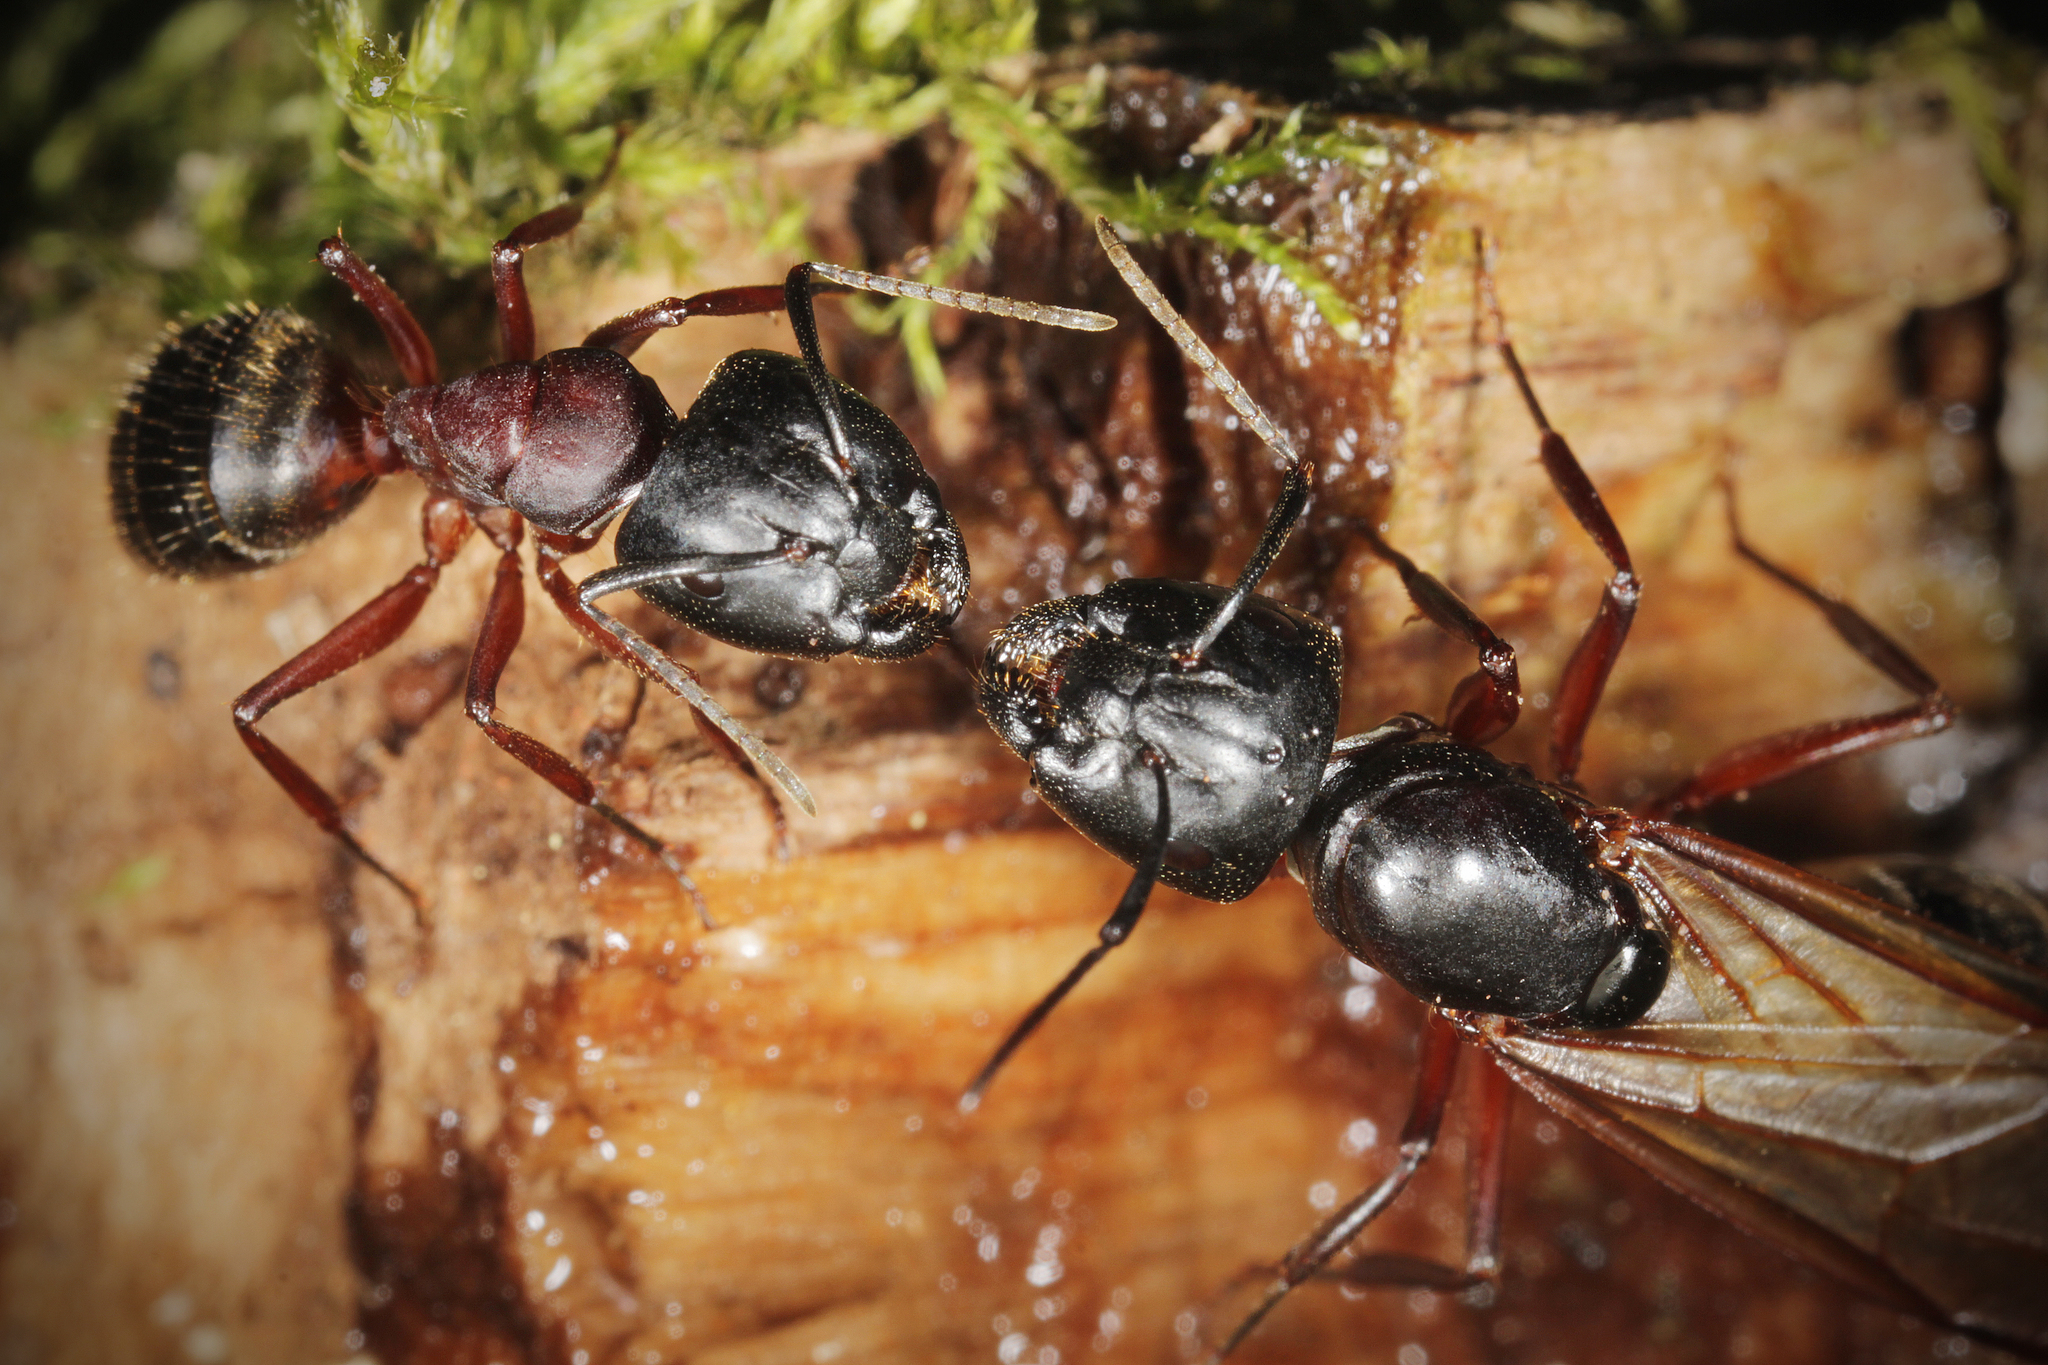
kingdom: Animalia
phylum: Arthropoda
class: Insecta
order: Hymenoptera
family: Formicidae
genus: Camponotus
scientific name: Camponotus herculeanus
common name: Hercules ant
